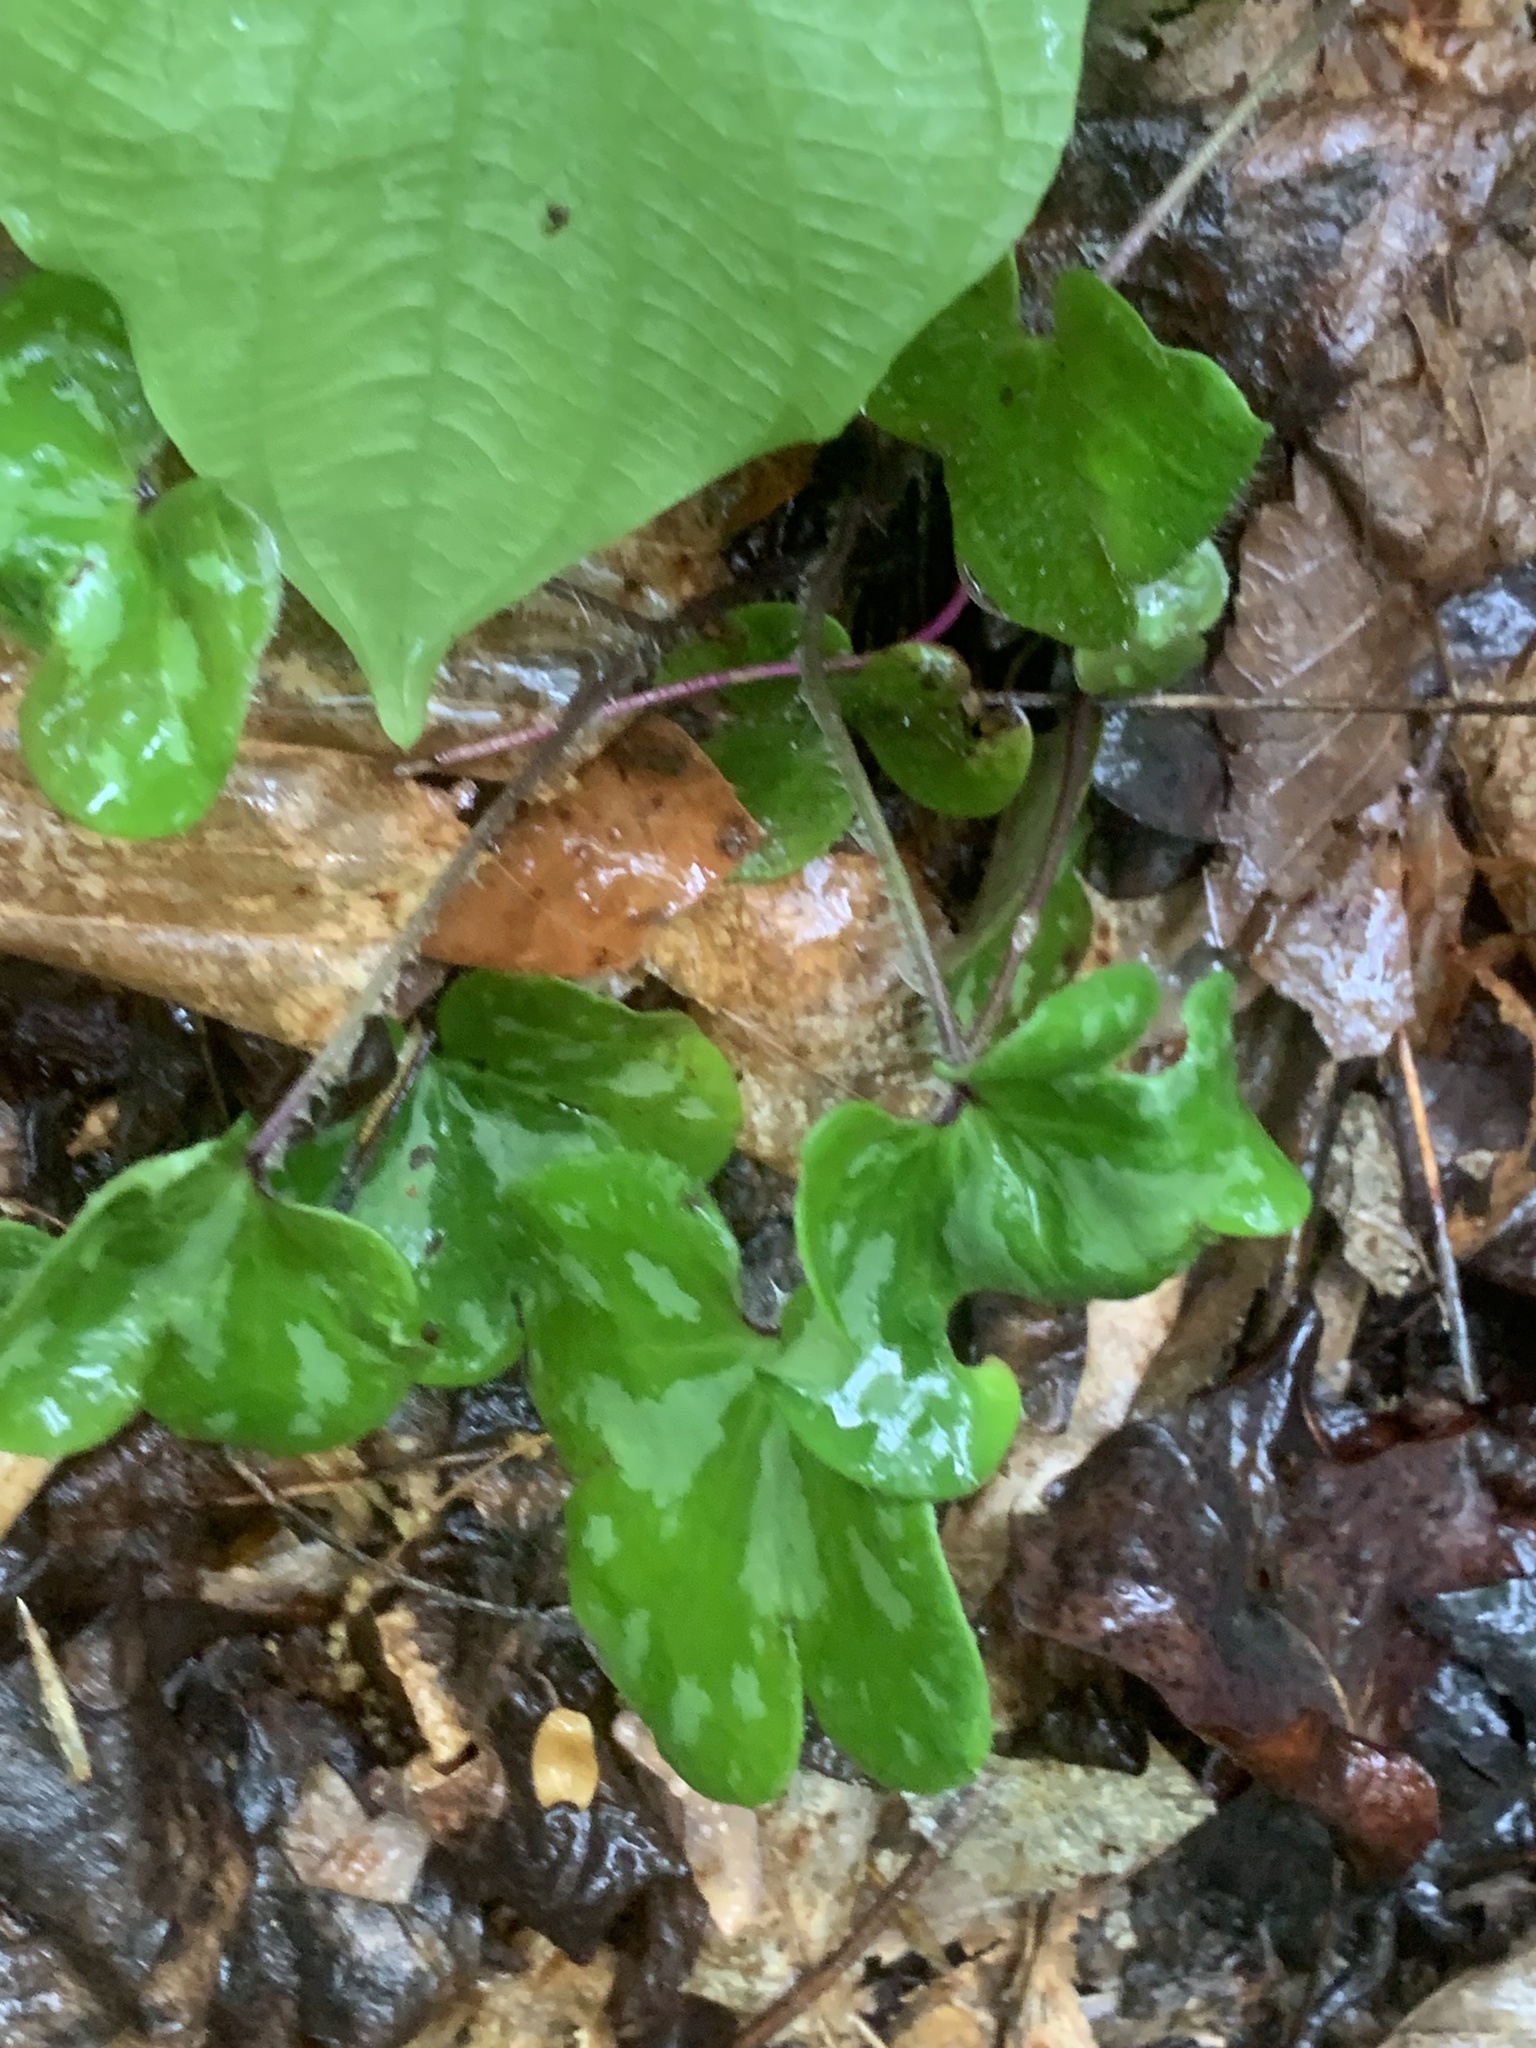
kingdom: Plantae
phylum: Tracheophyta
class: Magnoliopsida
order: Ranunculales
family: Ranunculaceae
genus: Hepatica
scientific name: Hepatica americana
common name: American hepatica
